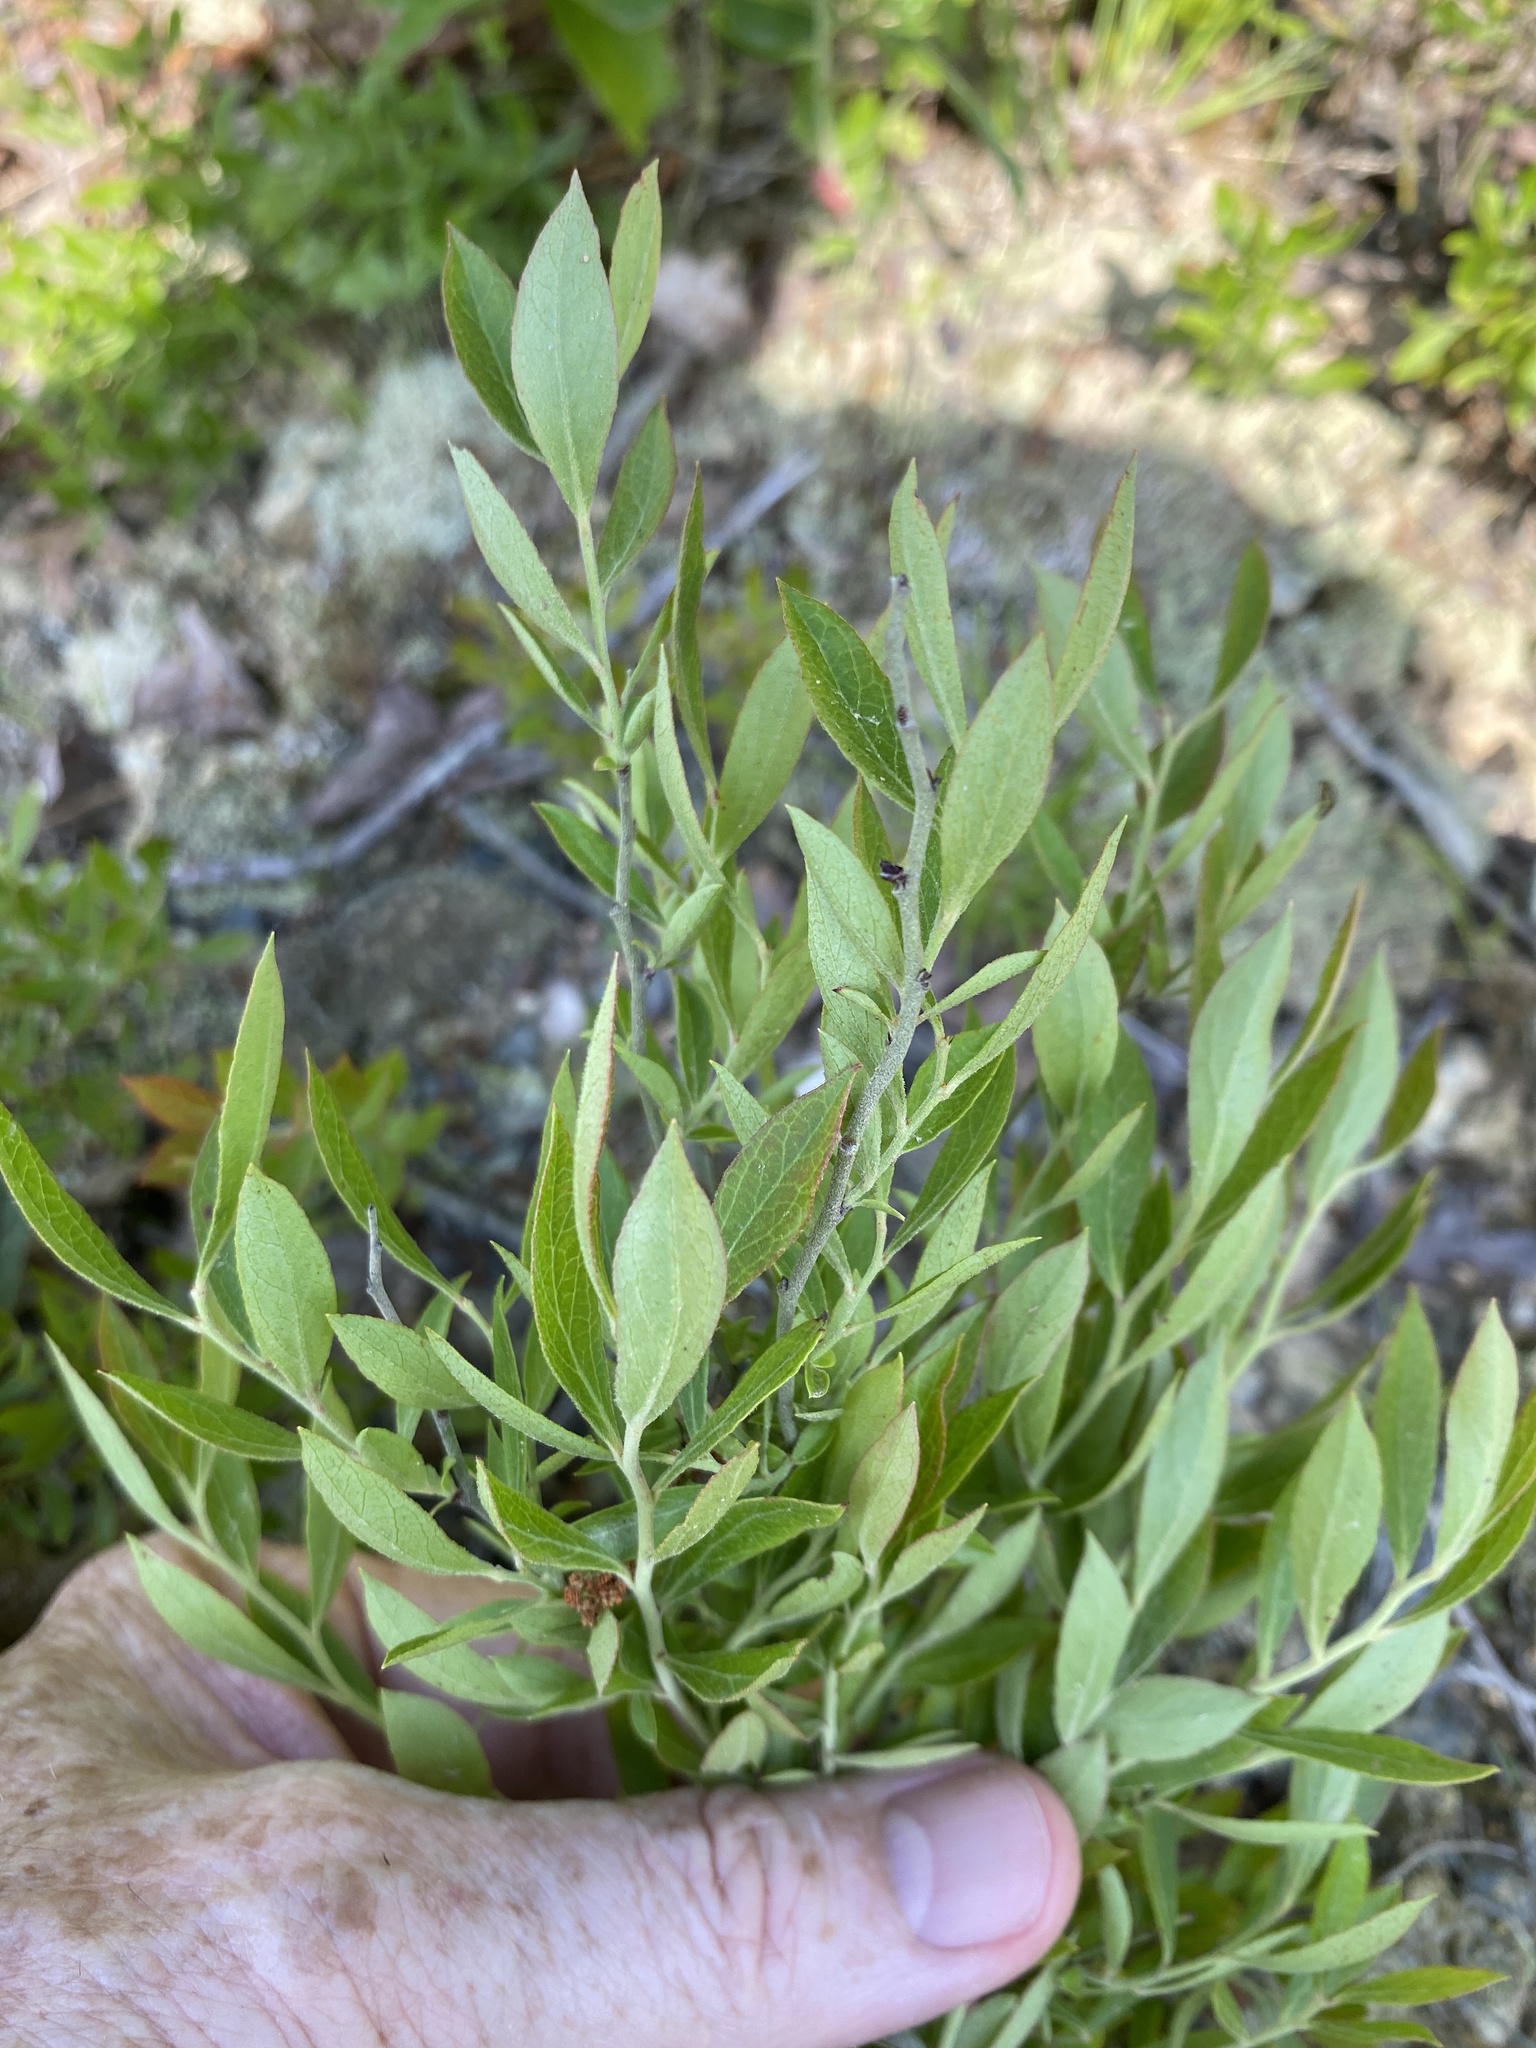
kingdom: Plantae
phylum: Tracheophyta
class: Magnoliopsida
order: Ericales
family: Ericaceae
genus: Vaccinium
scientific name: Vaccinium tenellum
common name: Southern blueberry
